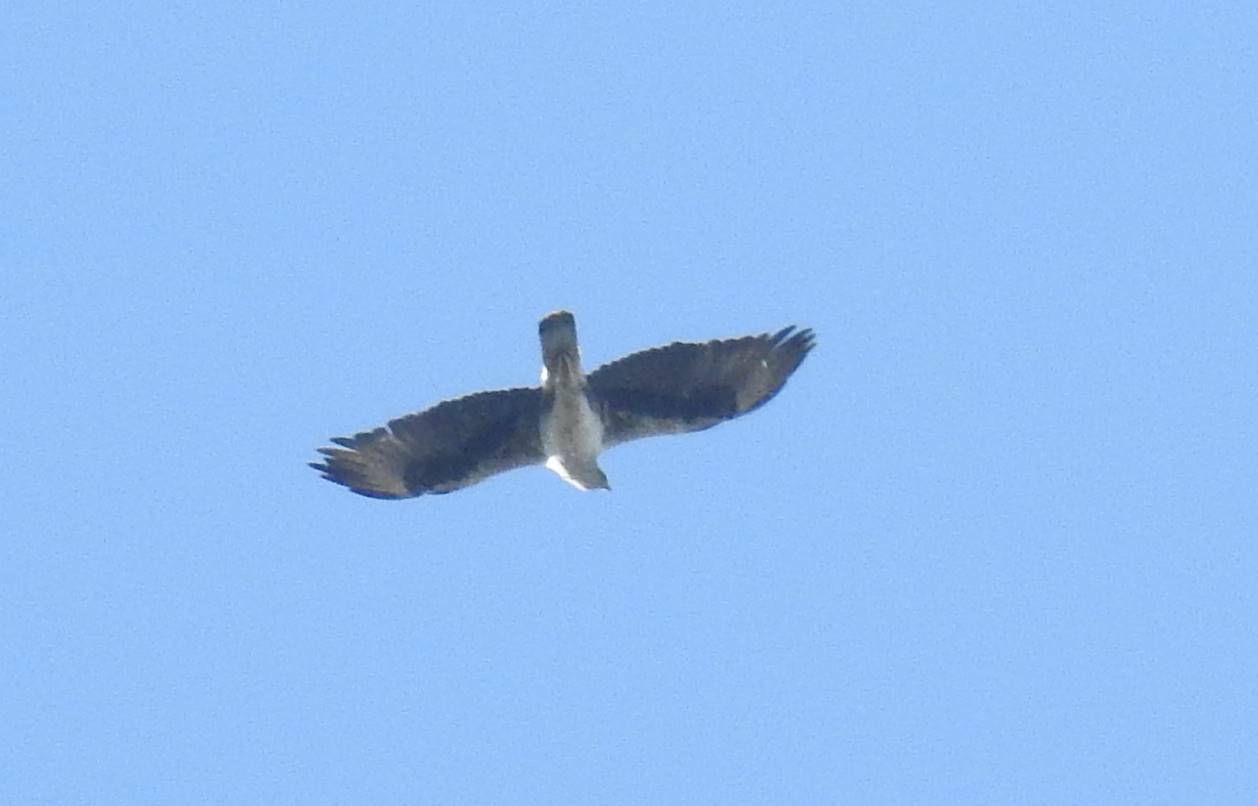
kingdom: Animalia
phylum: Chordata
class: Aves
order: Accipitriformes
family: Accipitridae
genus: Aquila
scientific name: Aquila fasciata
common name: Bonelli's eagle
